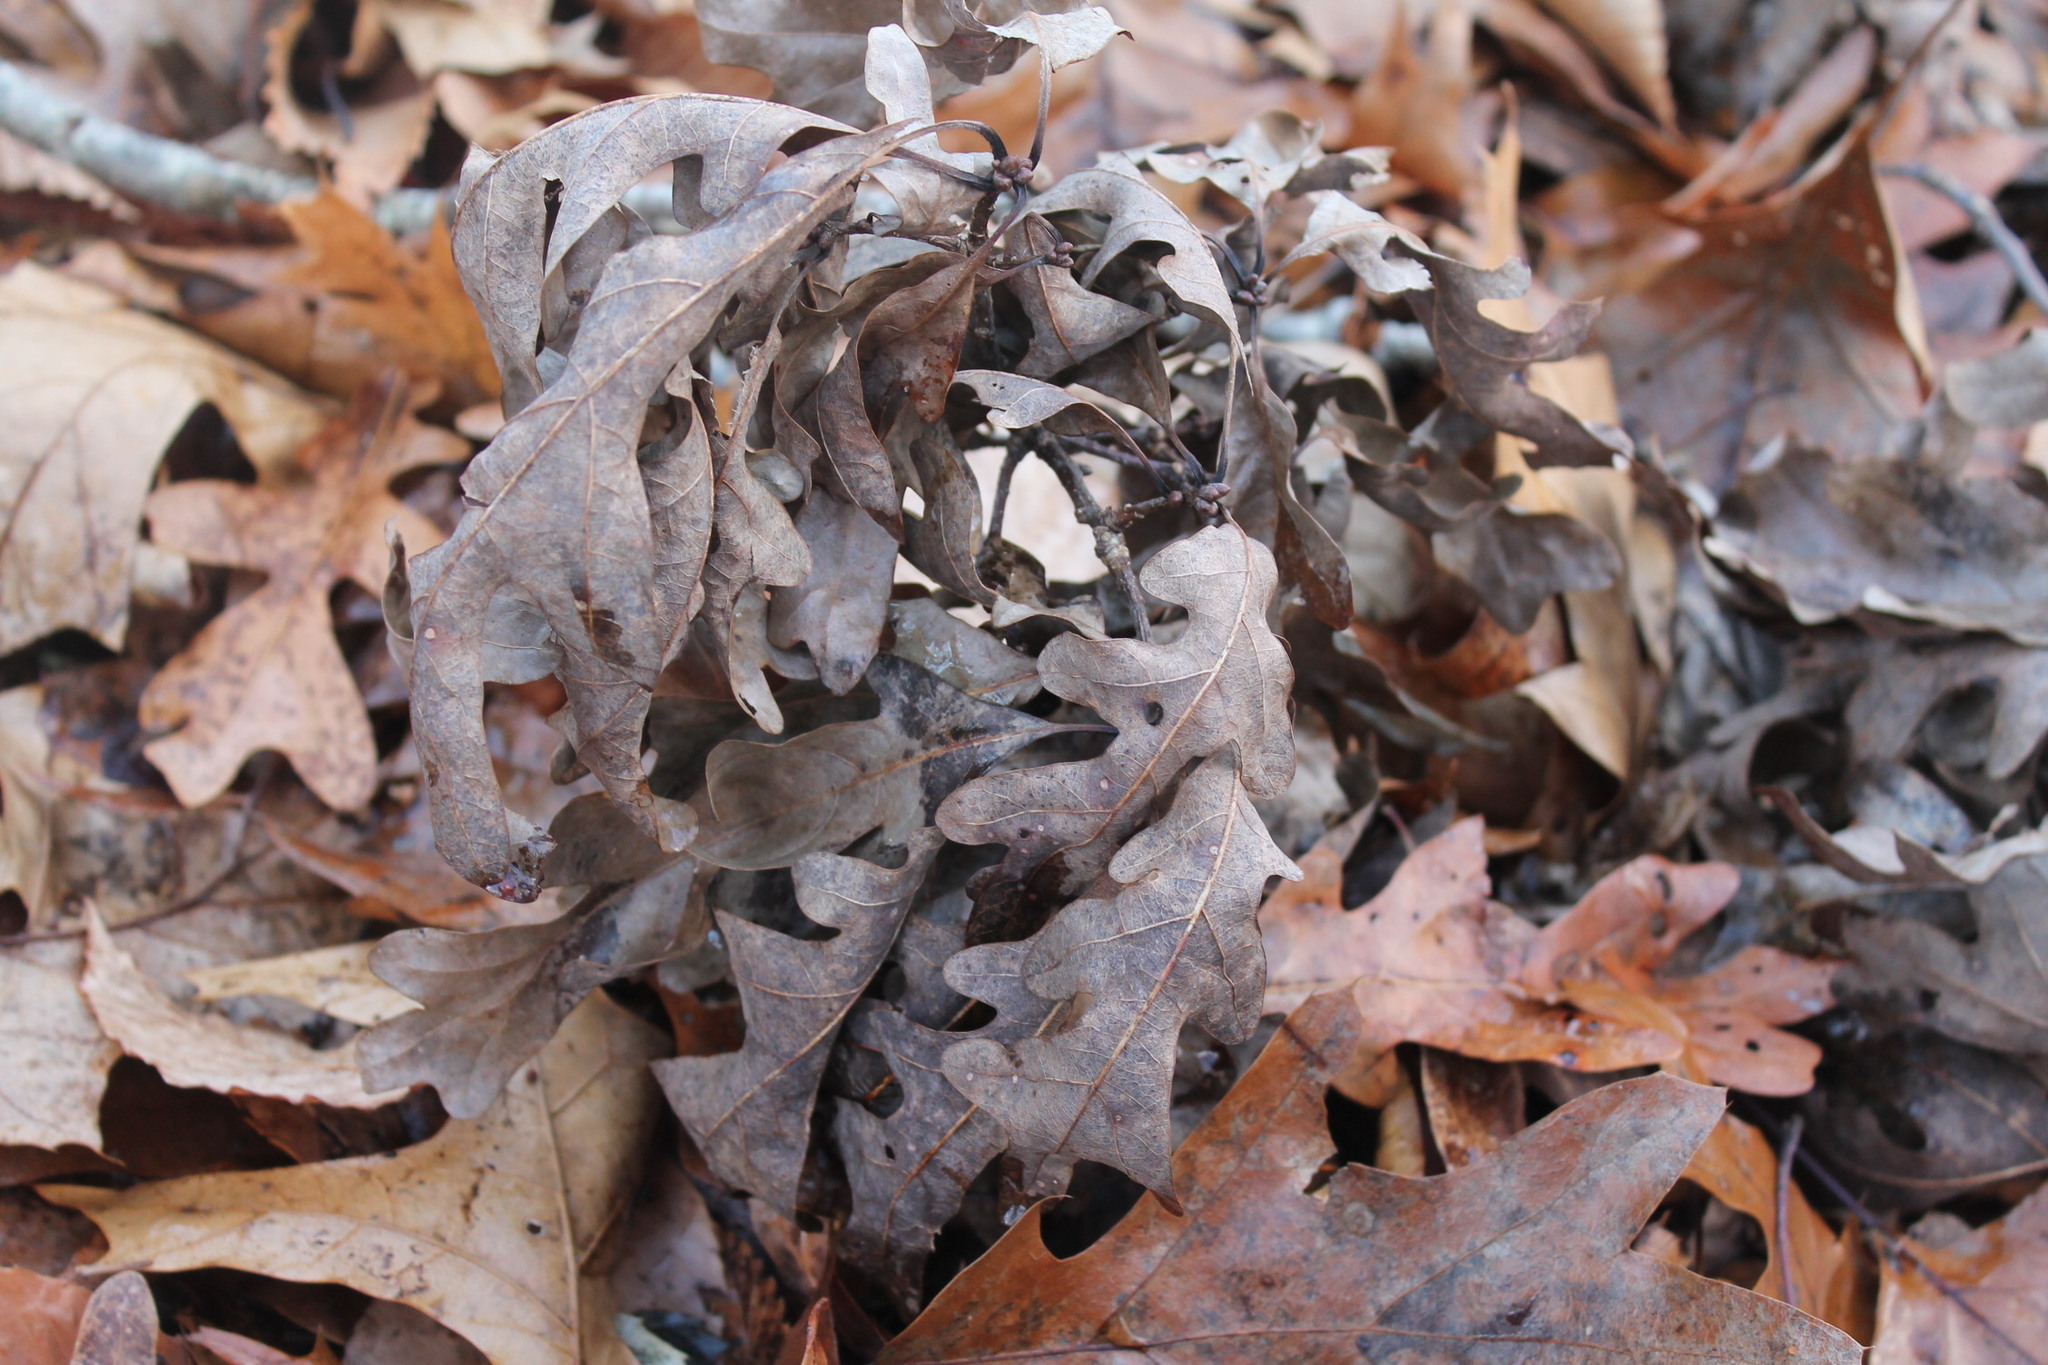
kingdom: Plantae
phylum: Tracheophyta
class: Magnoliopsida
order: Fagales
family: Fagaceae
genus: Quercus
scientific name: Quercus alba
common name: White oak
